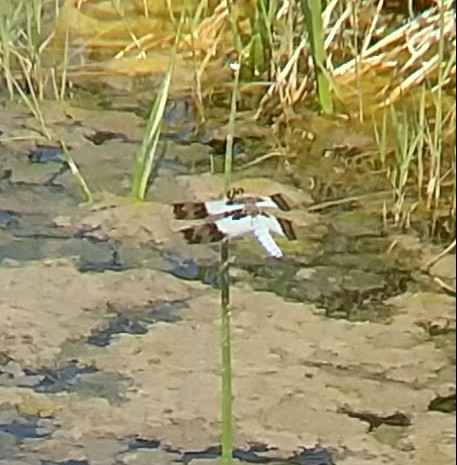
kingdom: Animalia
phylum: Arthropoda
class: Insecta
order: Odonata
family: Libellulidae
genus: Plathemis
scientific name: Plathemis subornata
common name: Desert whitetail
